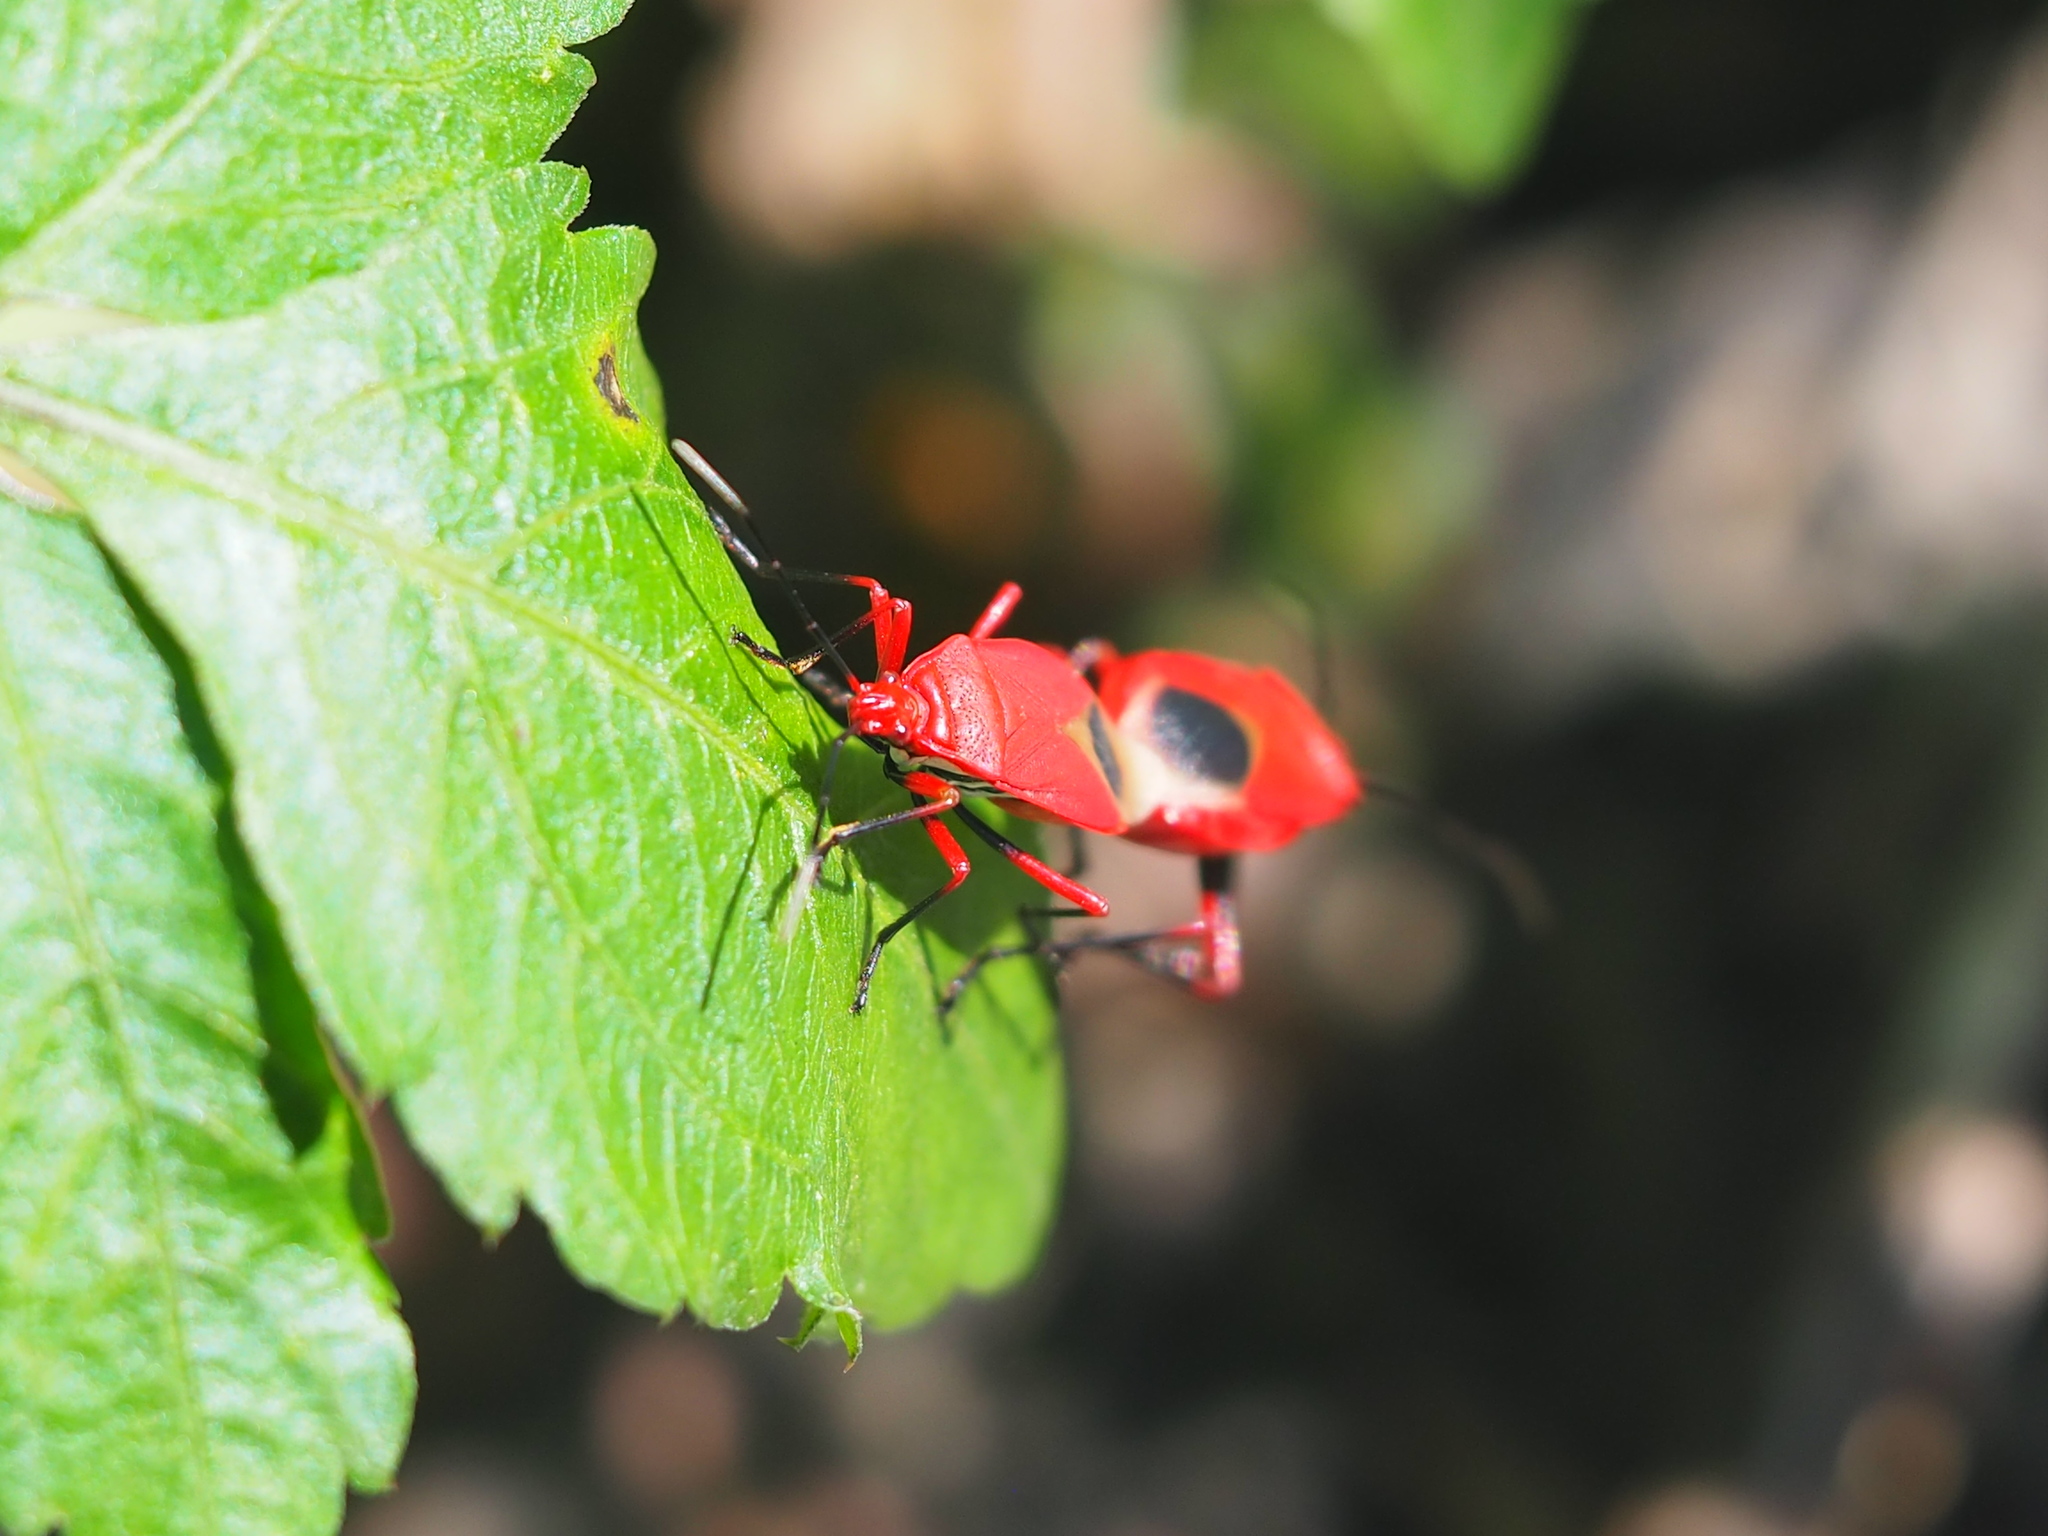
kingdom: Animalia
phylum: Arthropoda
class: Insecta
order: Hemiptera
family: Pyrrhocoridae
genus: Dindymus
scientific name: Dindymus brevis
